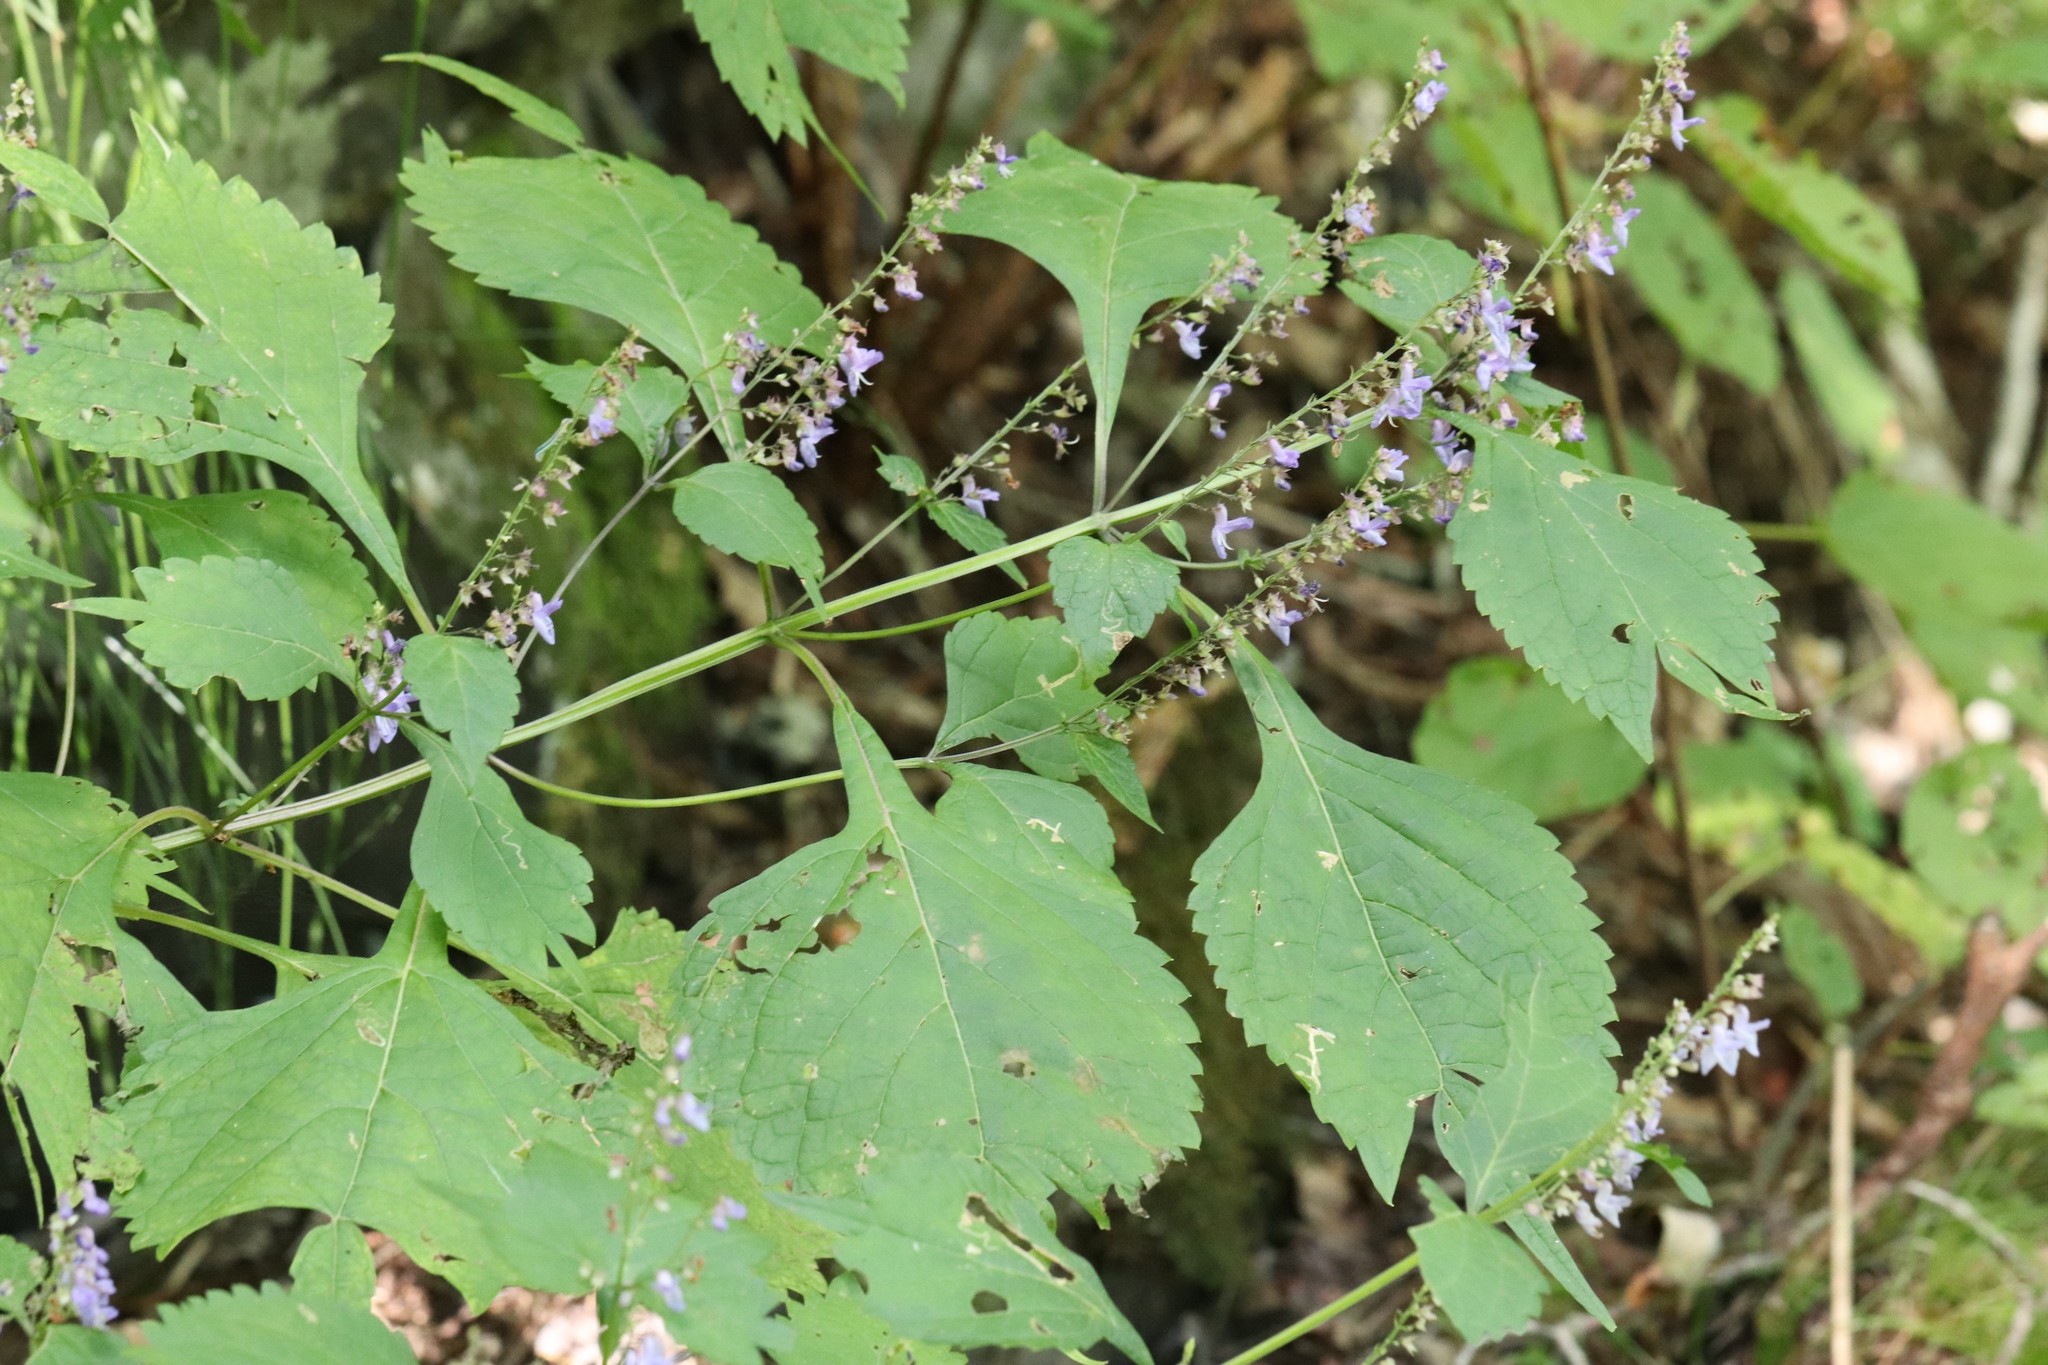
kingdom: Plantae
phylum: Tracheophyta
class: Magnoliopsida
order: Lamiales
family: Lamiaceae
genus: Isodon
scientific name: Isodon excisus
